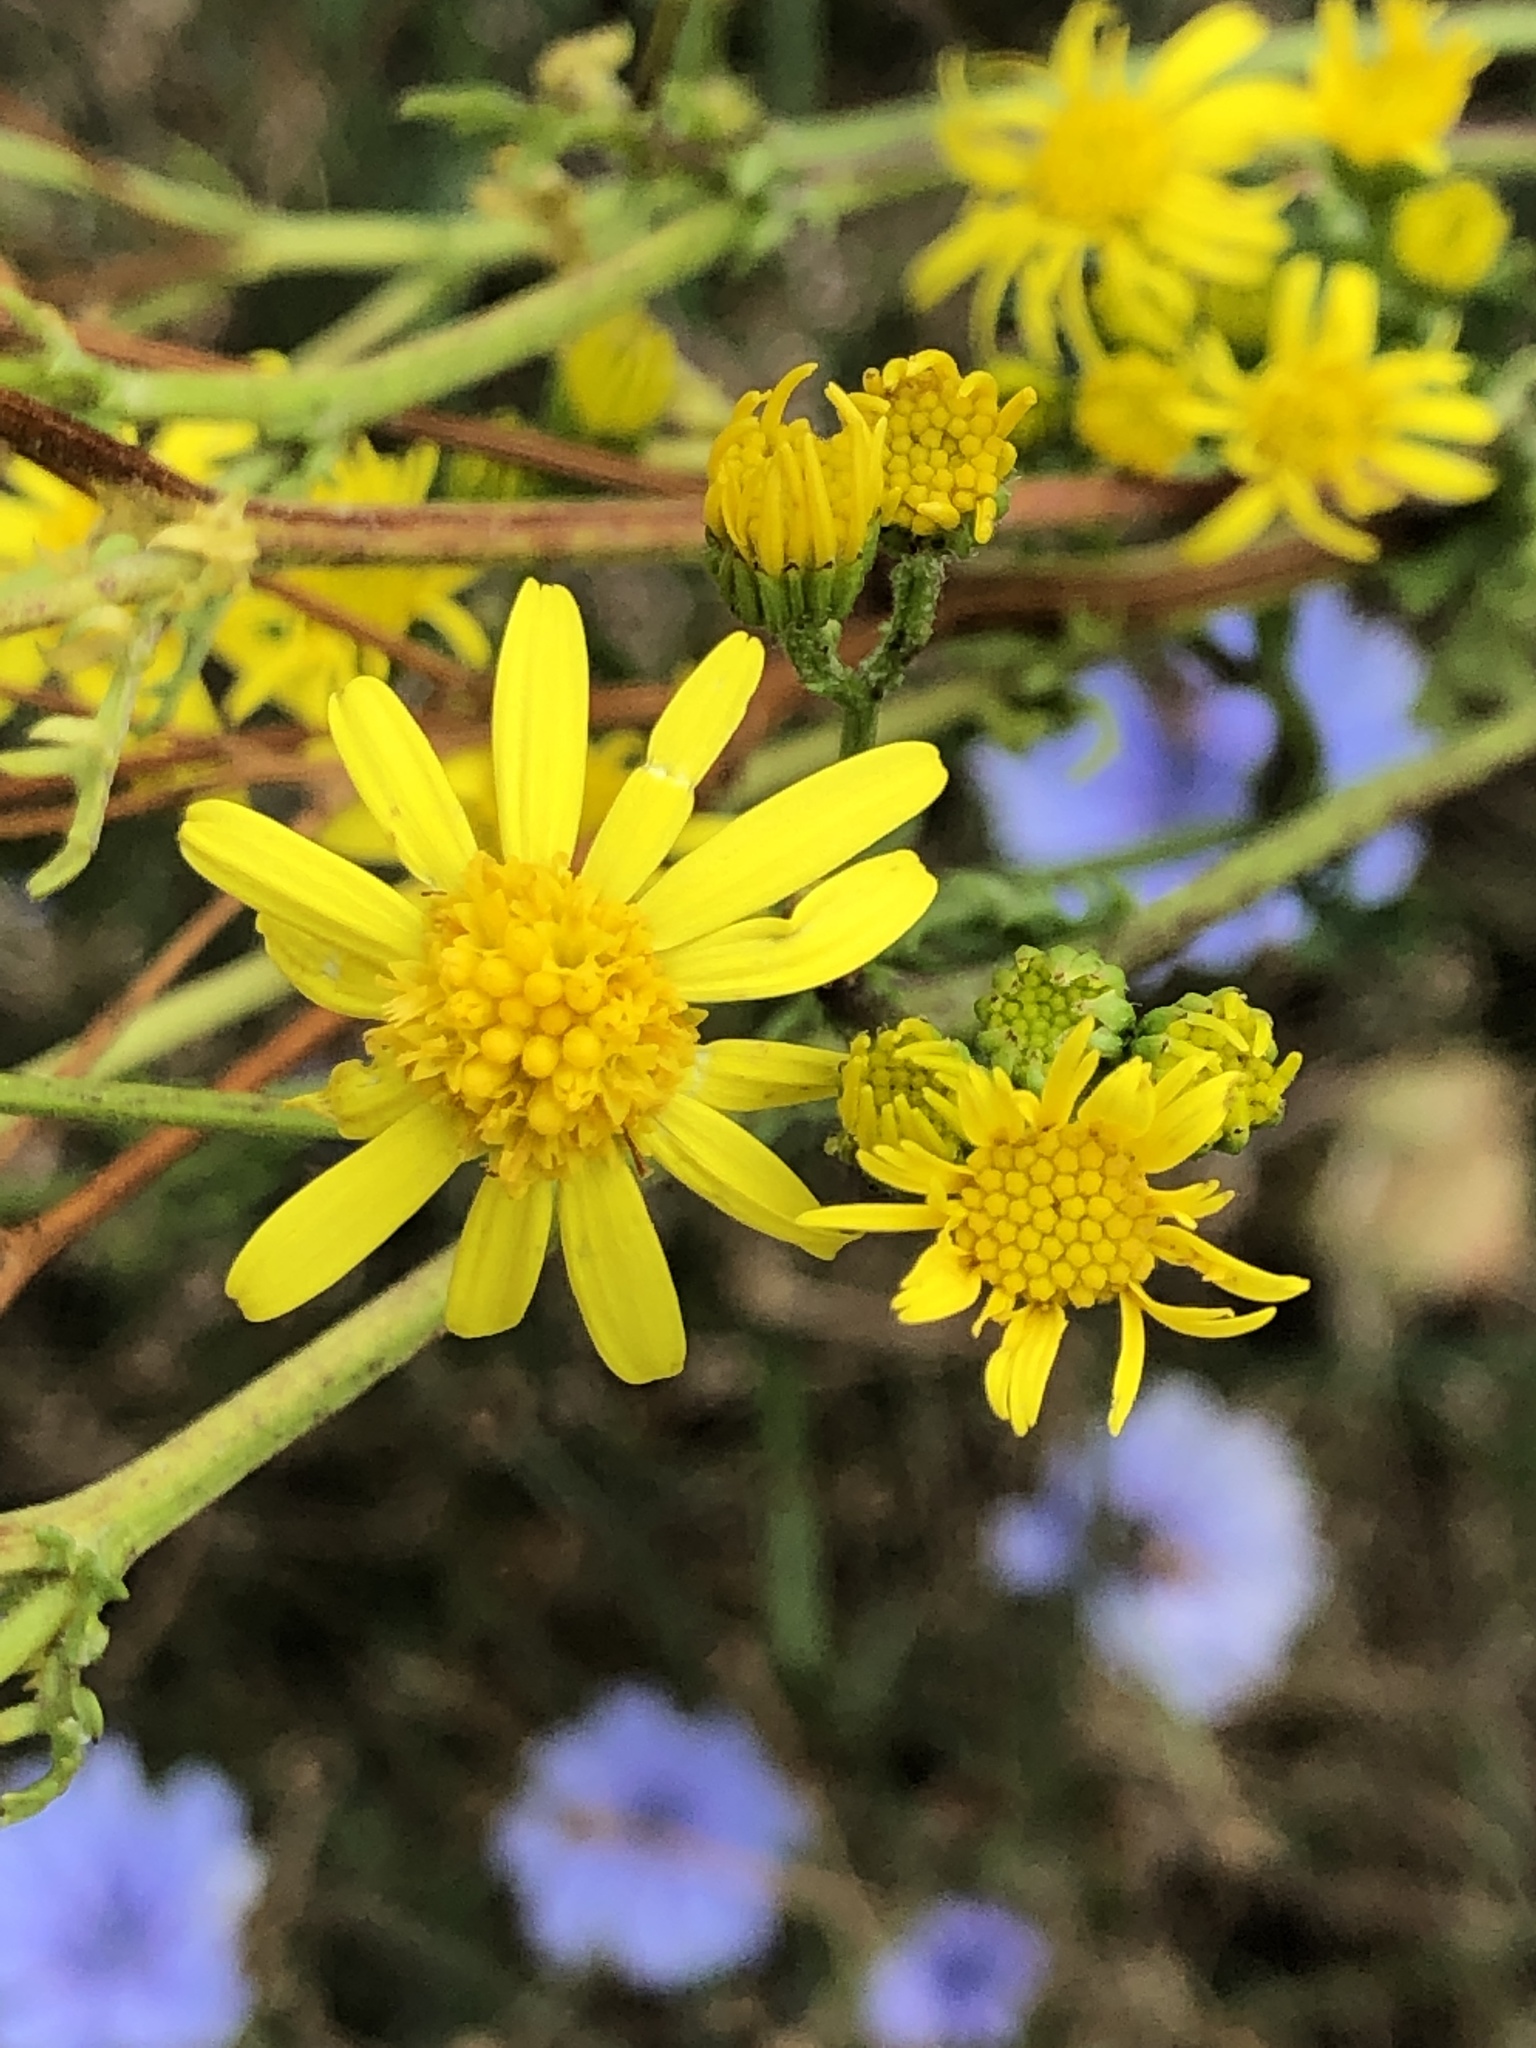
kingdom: Plantae
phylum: Tracheophyta
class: Magnoliopsida
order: Asterales
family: Asteraceae
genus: Jacobaea
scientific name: Jacobaea vulgaris
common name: Stinking willie
